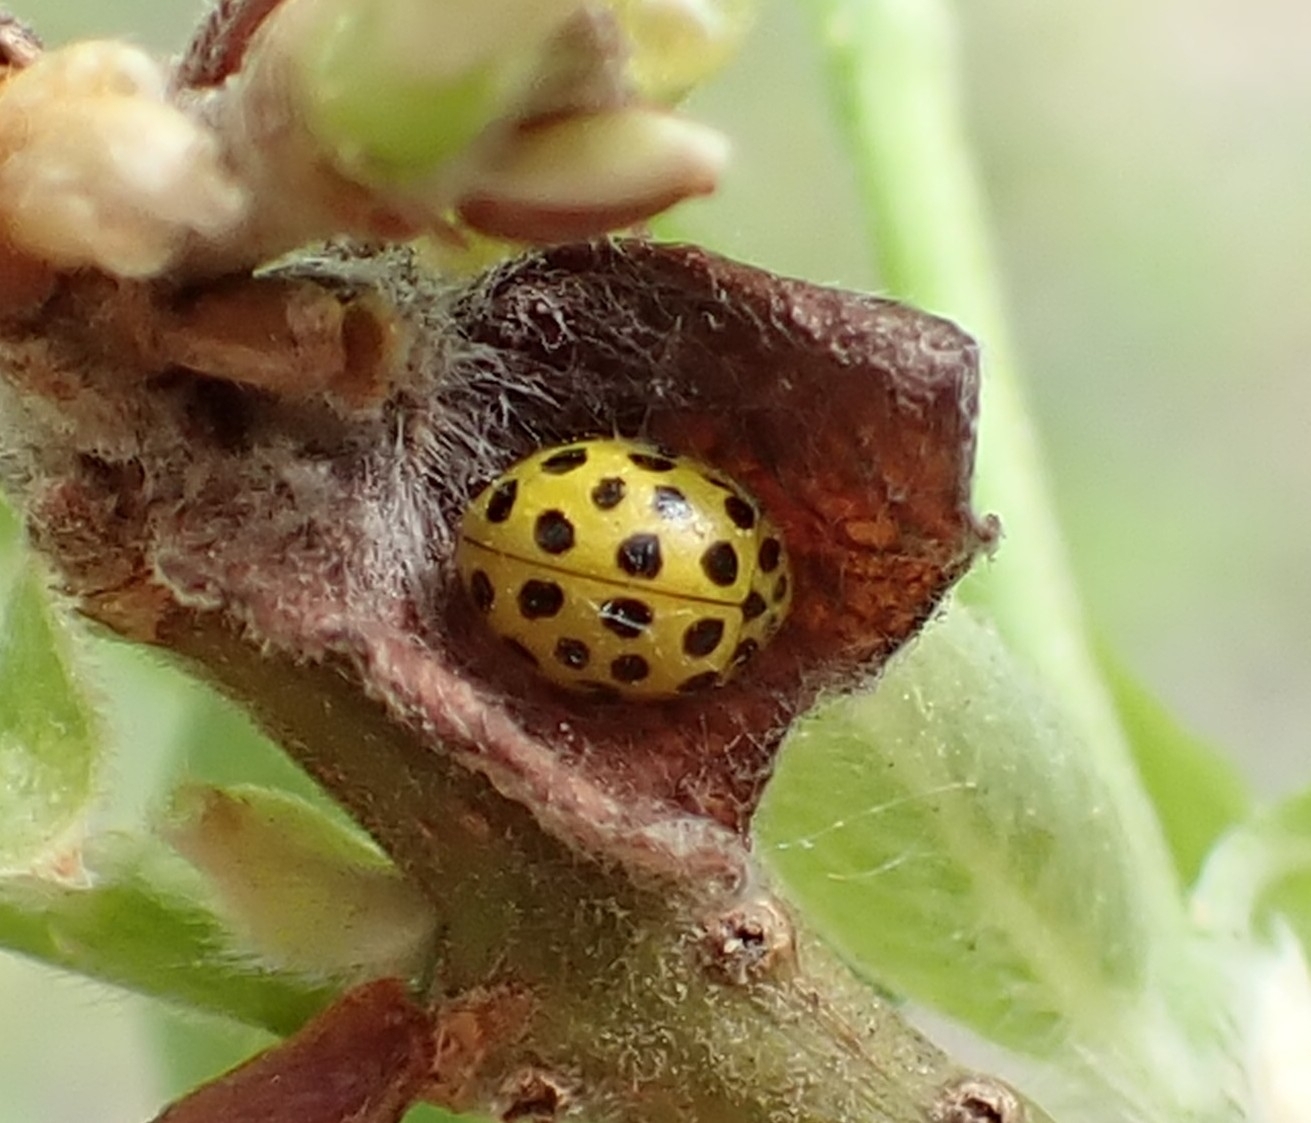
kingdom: Animalia
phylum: Arthropoda
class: Insecta
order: Coleoptera
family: Coccinellidae
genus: Psyllobora
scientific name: Psyllobora vigintiduopunctata
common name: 22-spot ladybird
